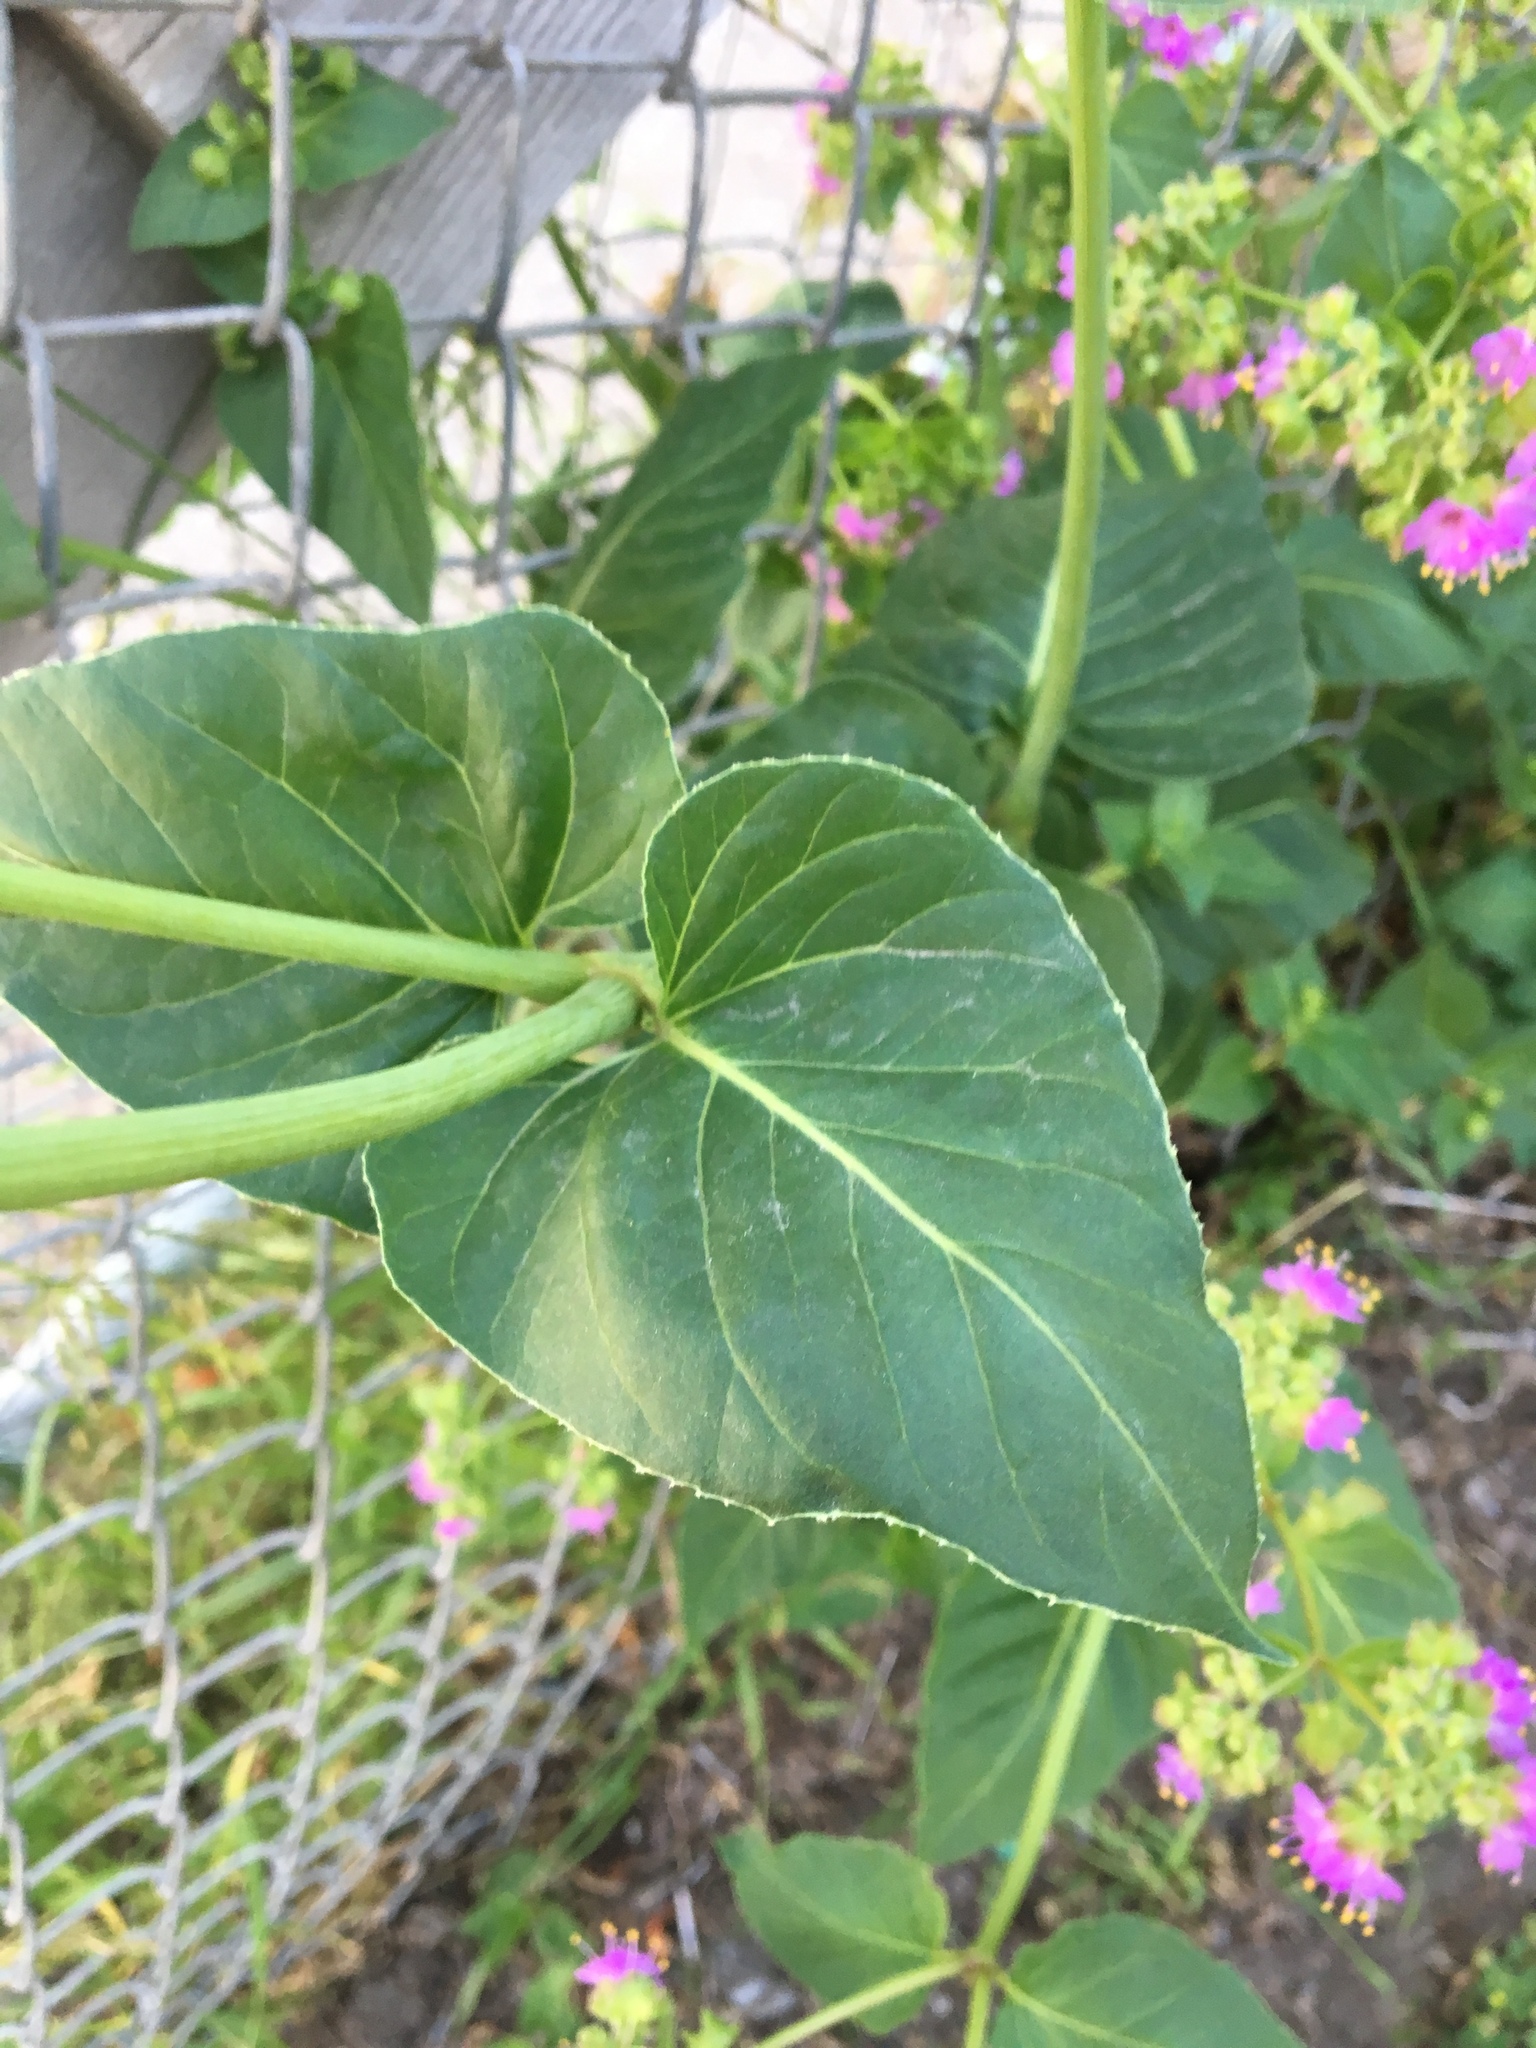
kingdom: Plantae
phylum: Tracheophyta
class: Magnoliopsida
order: Caryophyllales
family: Nyctaginaceae
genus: Mirabilis
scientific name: Mirabilis nyctaginea
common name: Umbrella wort
